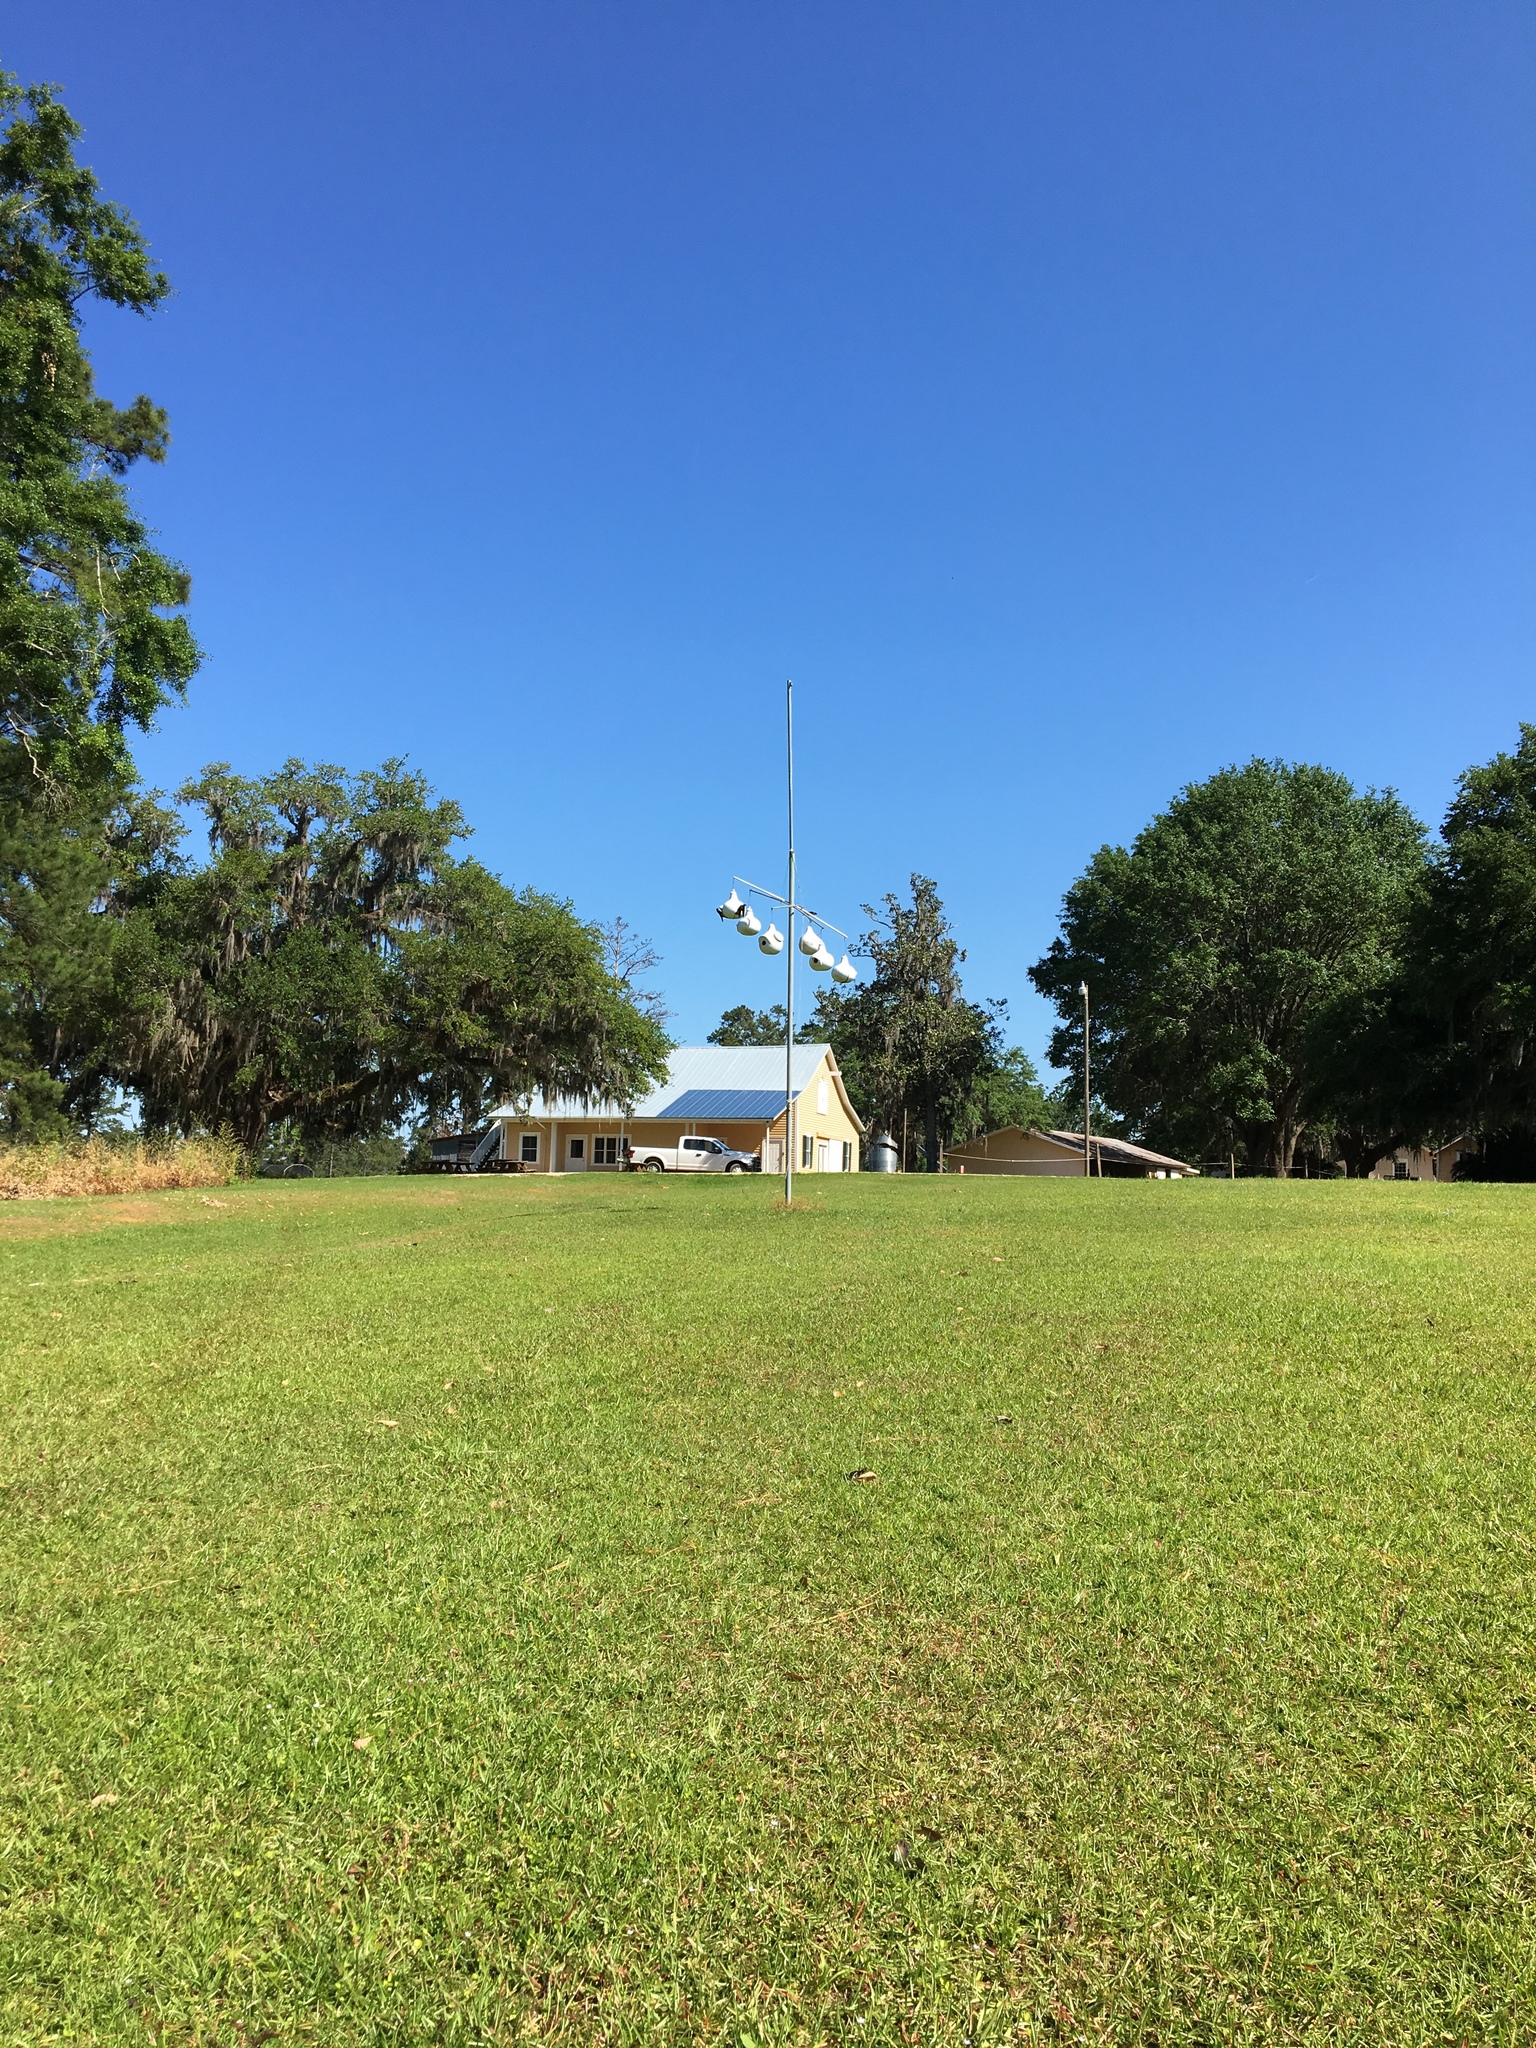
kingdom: Animalia
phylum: Chordata
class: Aves
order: Passeriformes
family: Hirundinidae
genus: Progne
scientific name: Progne subis
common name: Purple martin
